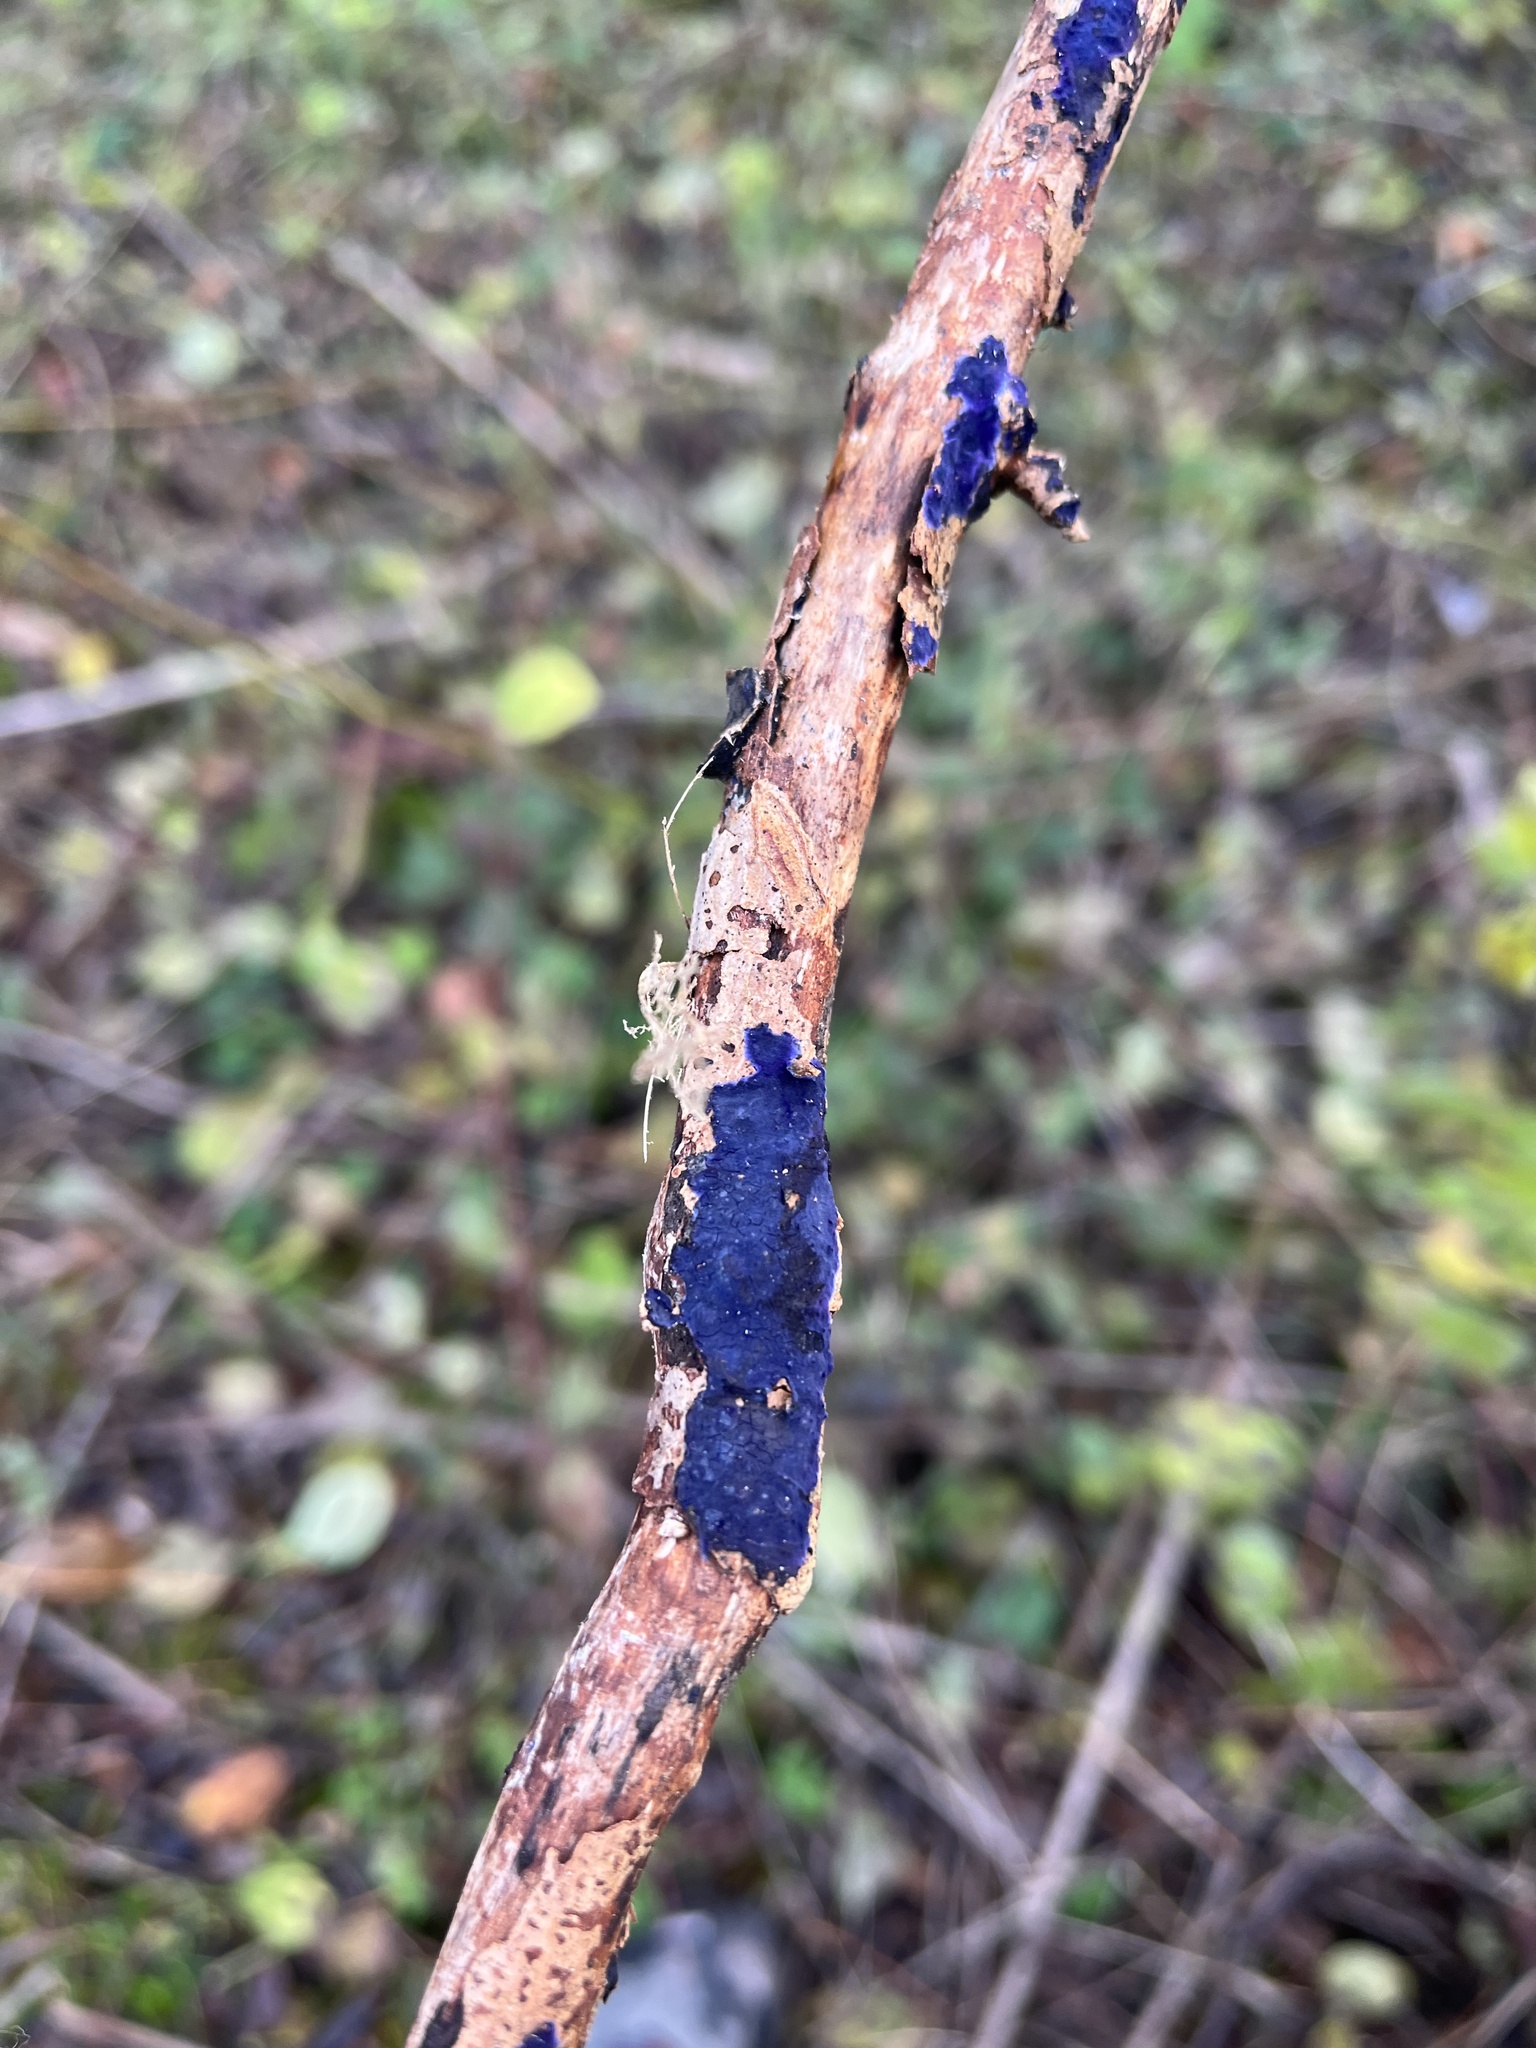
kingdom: Fungi
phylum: Basidiomycota
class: Agaricomycetes
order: Polyporales
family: Phanerochaetaceae
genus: Terana
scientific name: Terana coerulea
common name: Cobalt crust
